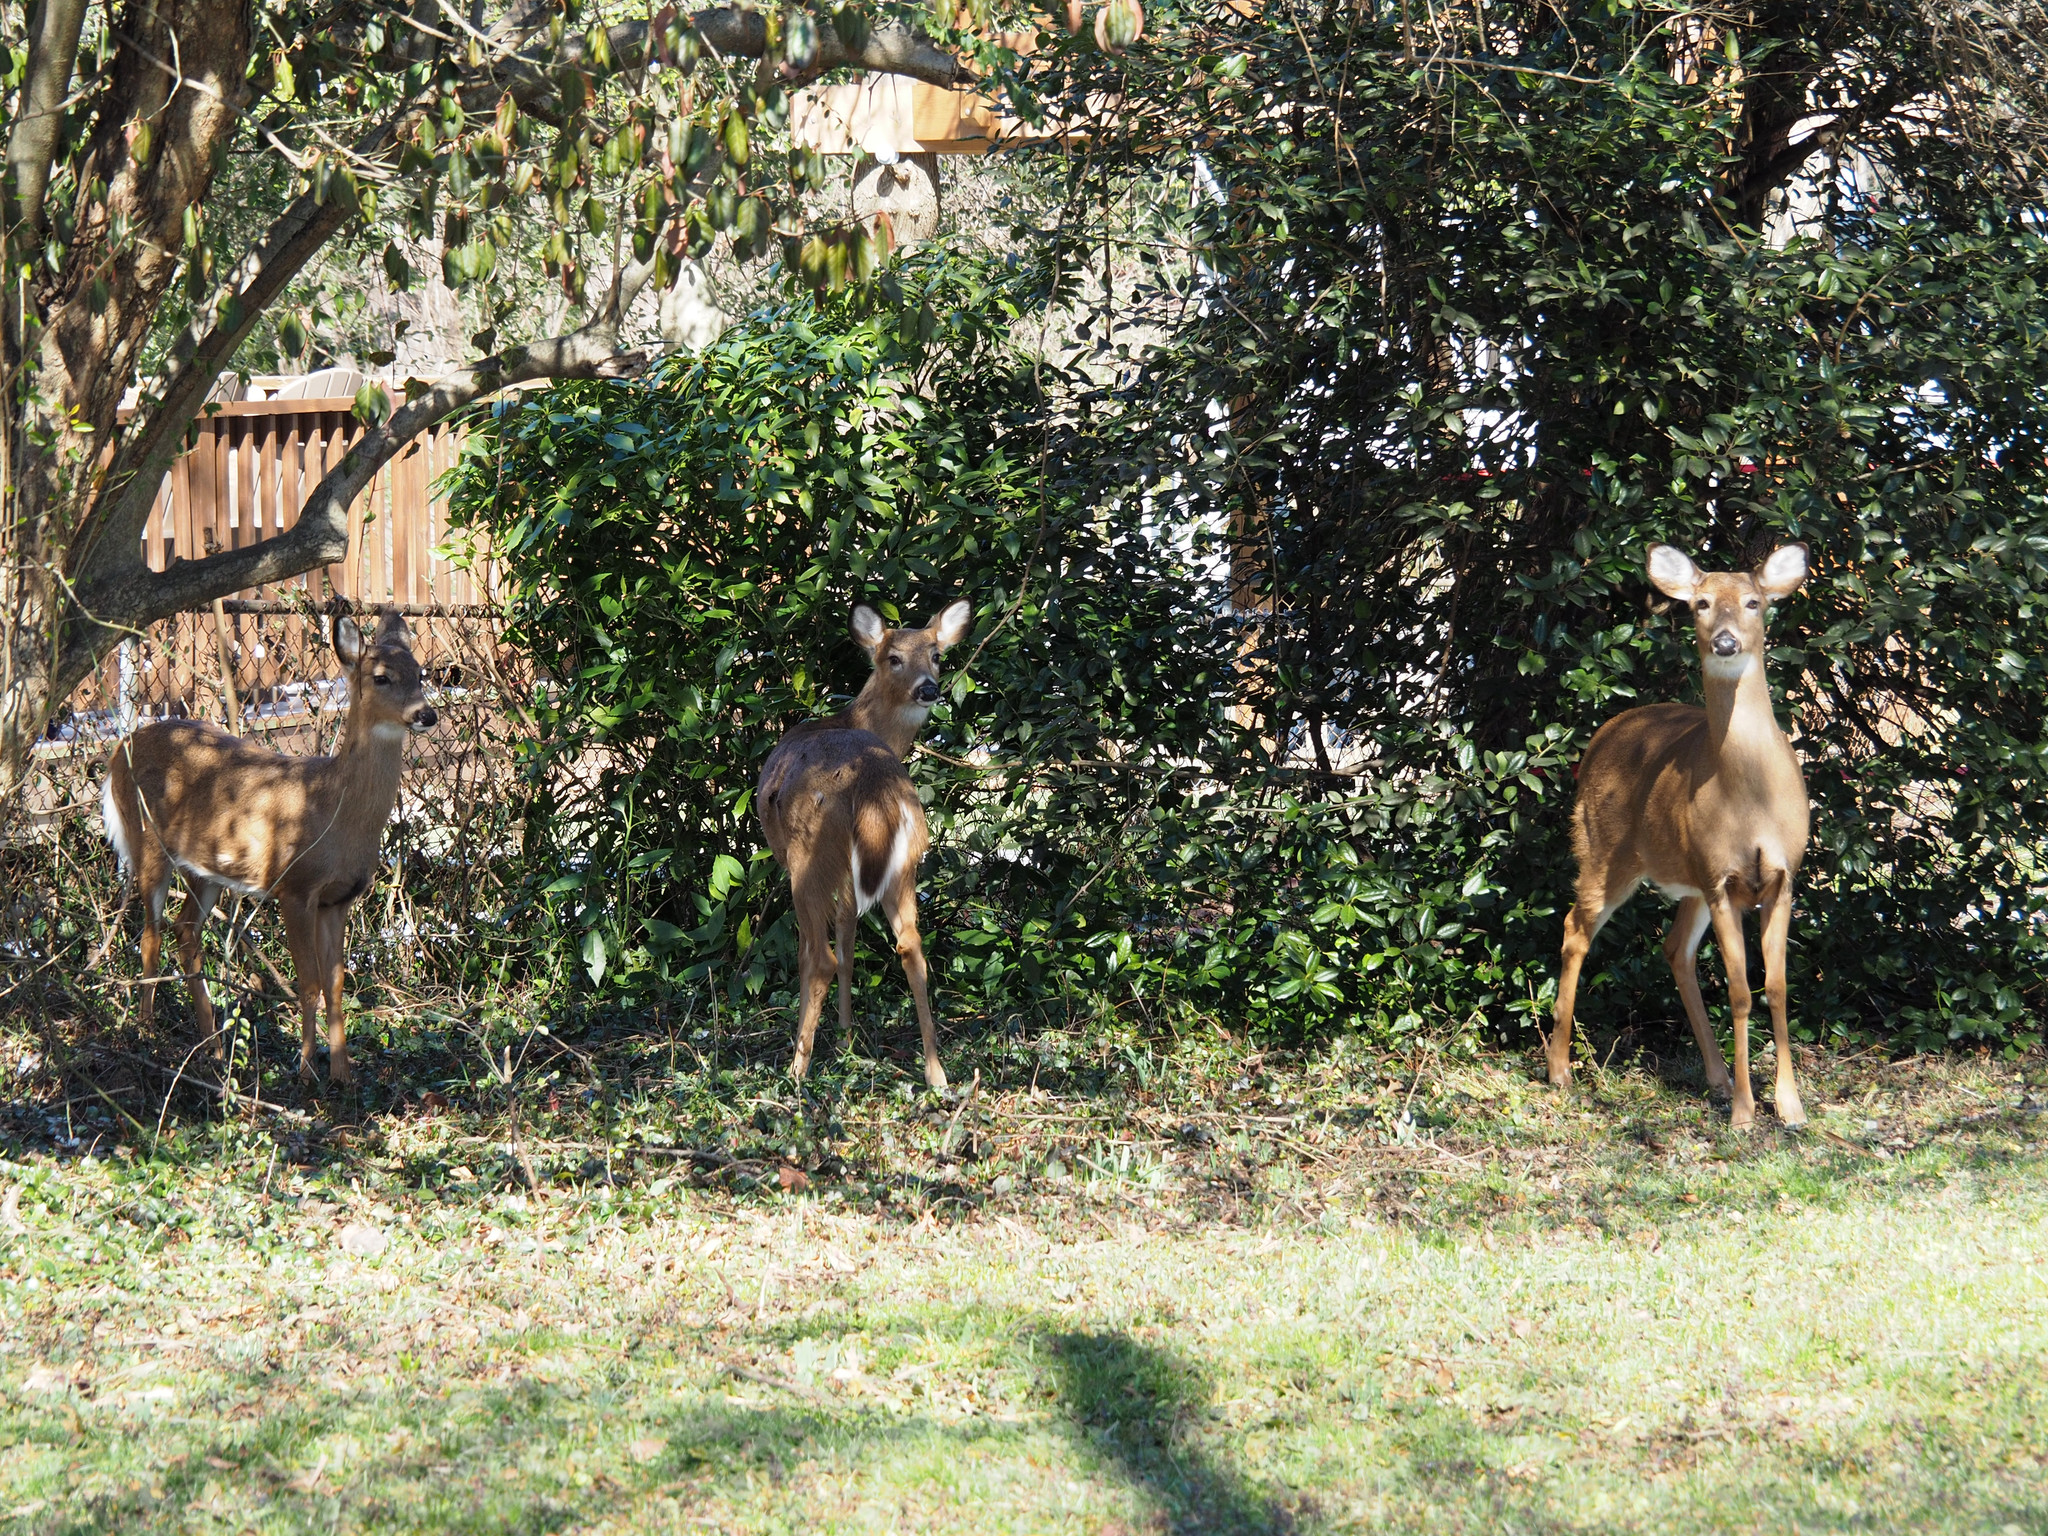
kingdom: Animalia
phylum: Chordata
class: Mammalia
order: Artiodactyla
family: Cervidae
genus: Odocoileus
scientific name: Odocoileus virginianus
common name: White-tailed deer
